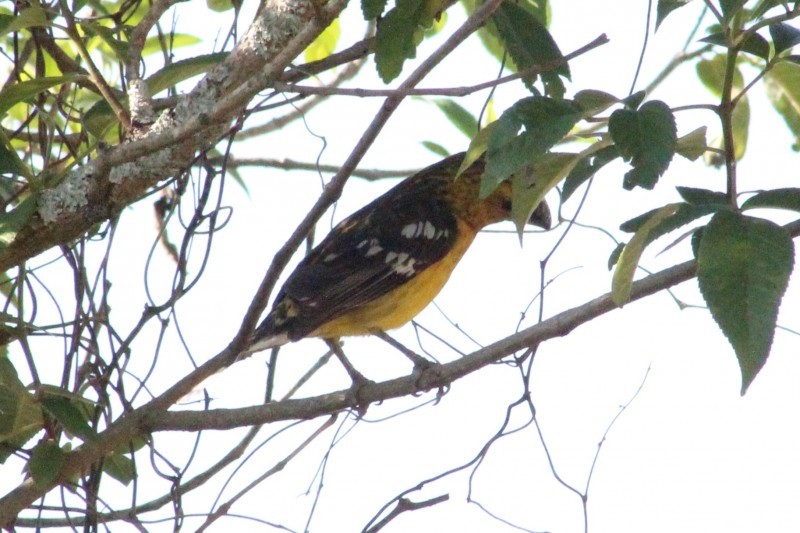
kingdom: Animalia
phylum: Chordata
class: Aves
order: Passeriformes
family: Cardinalidae
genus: Pheucticus
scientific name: Pheucticus chrysogaster
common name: Golden grosbeak
